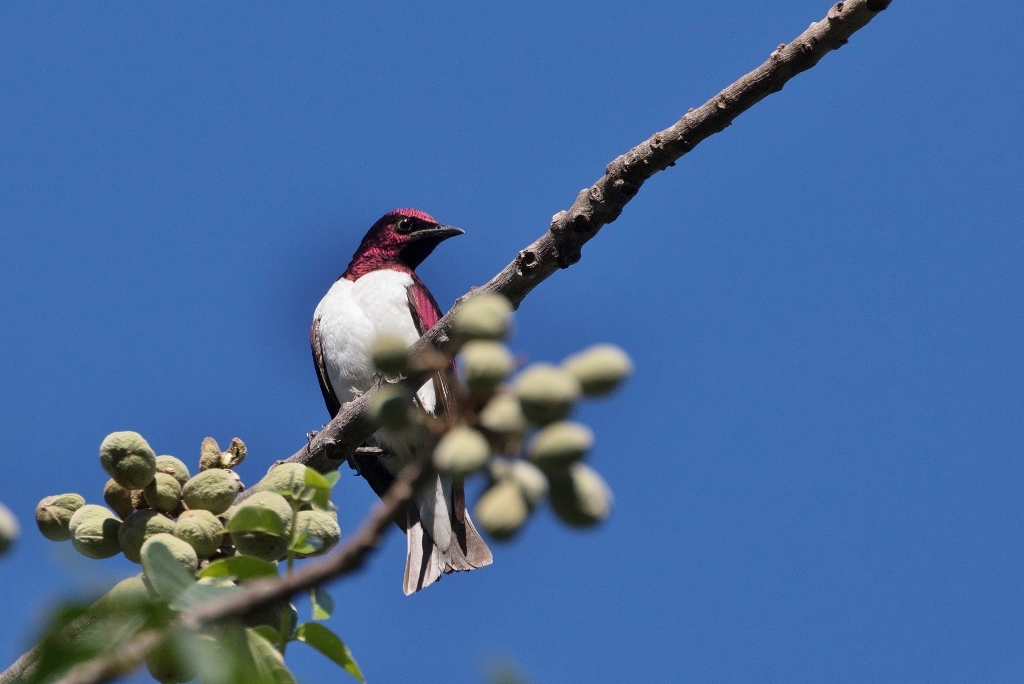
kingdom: Animalia
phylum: Chordata
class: Aves
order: Passeriformes
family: Sturnidae
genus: Cinnyricinclus
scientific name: Cinnyricinclus leucogaster
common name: Violet-backed starling
